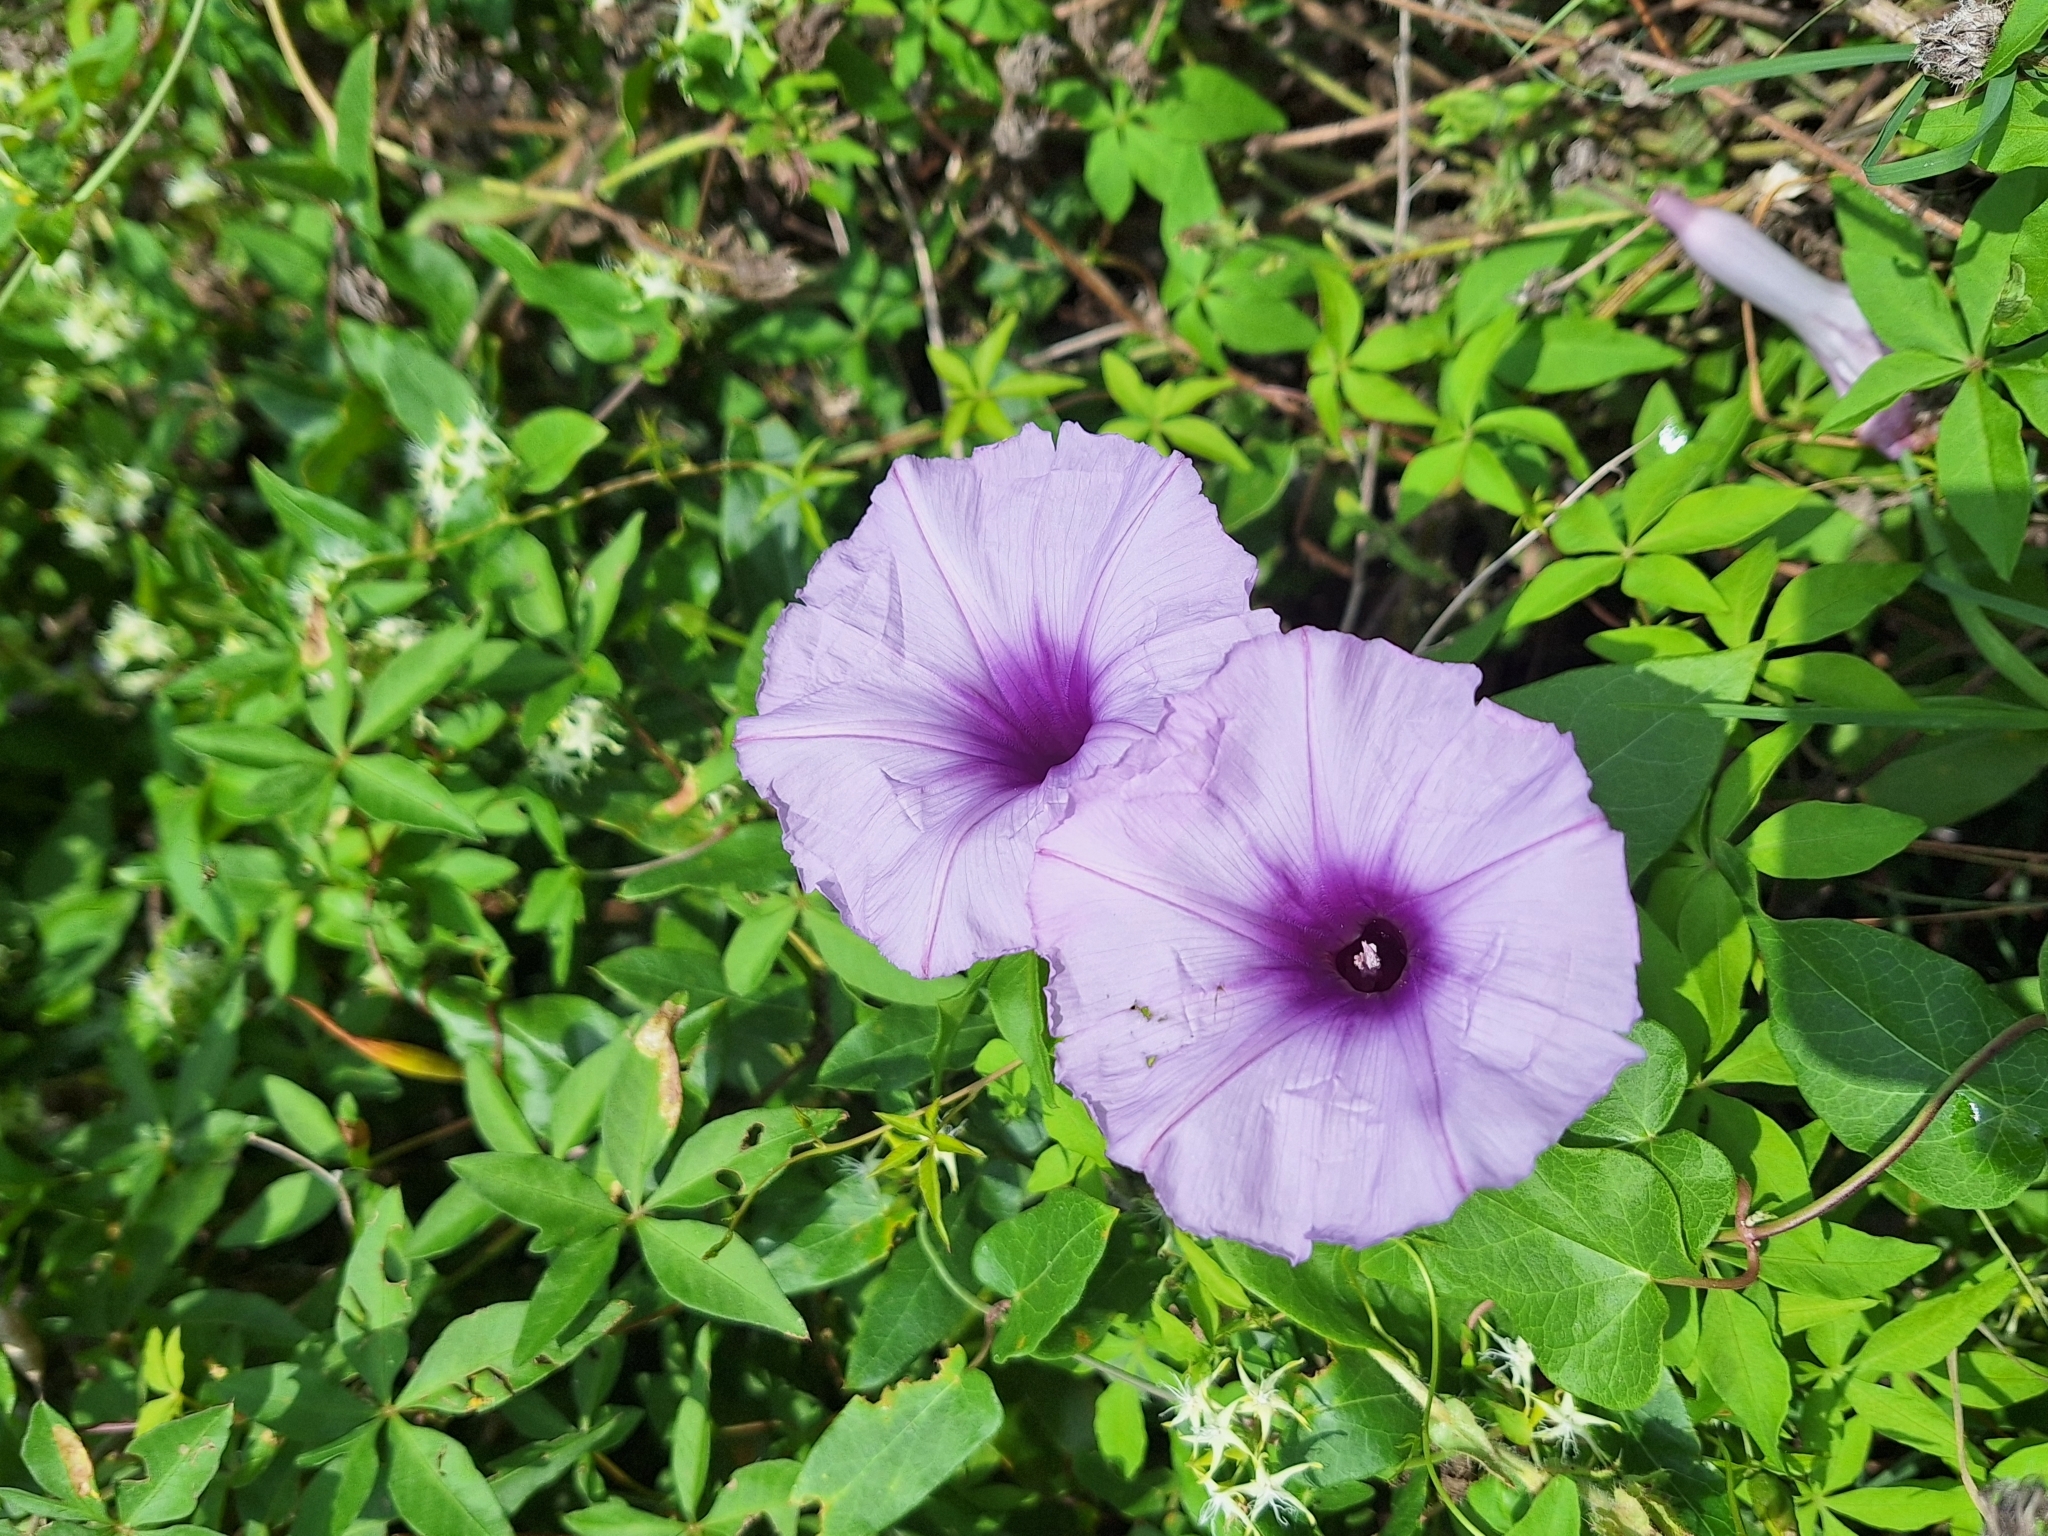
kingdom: Plantae
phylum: Tracheophyta
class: Magnoliopsida
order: Solanales
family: Convolvulaceae
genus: Ipomoea
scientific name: Ipomoea cairica
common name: Mile a minute vine
